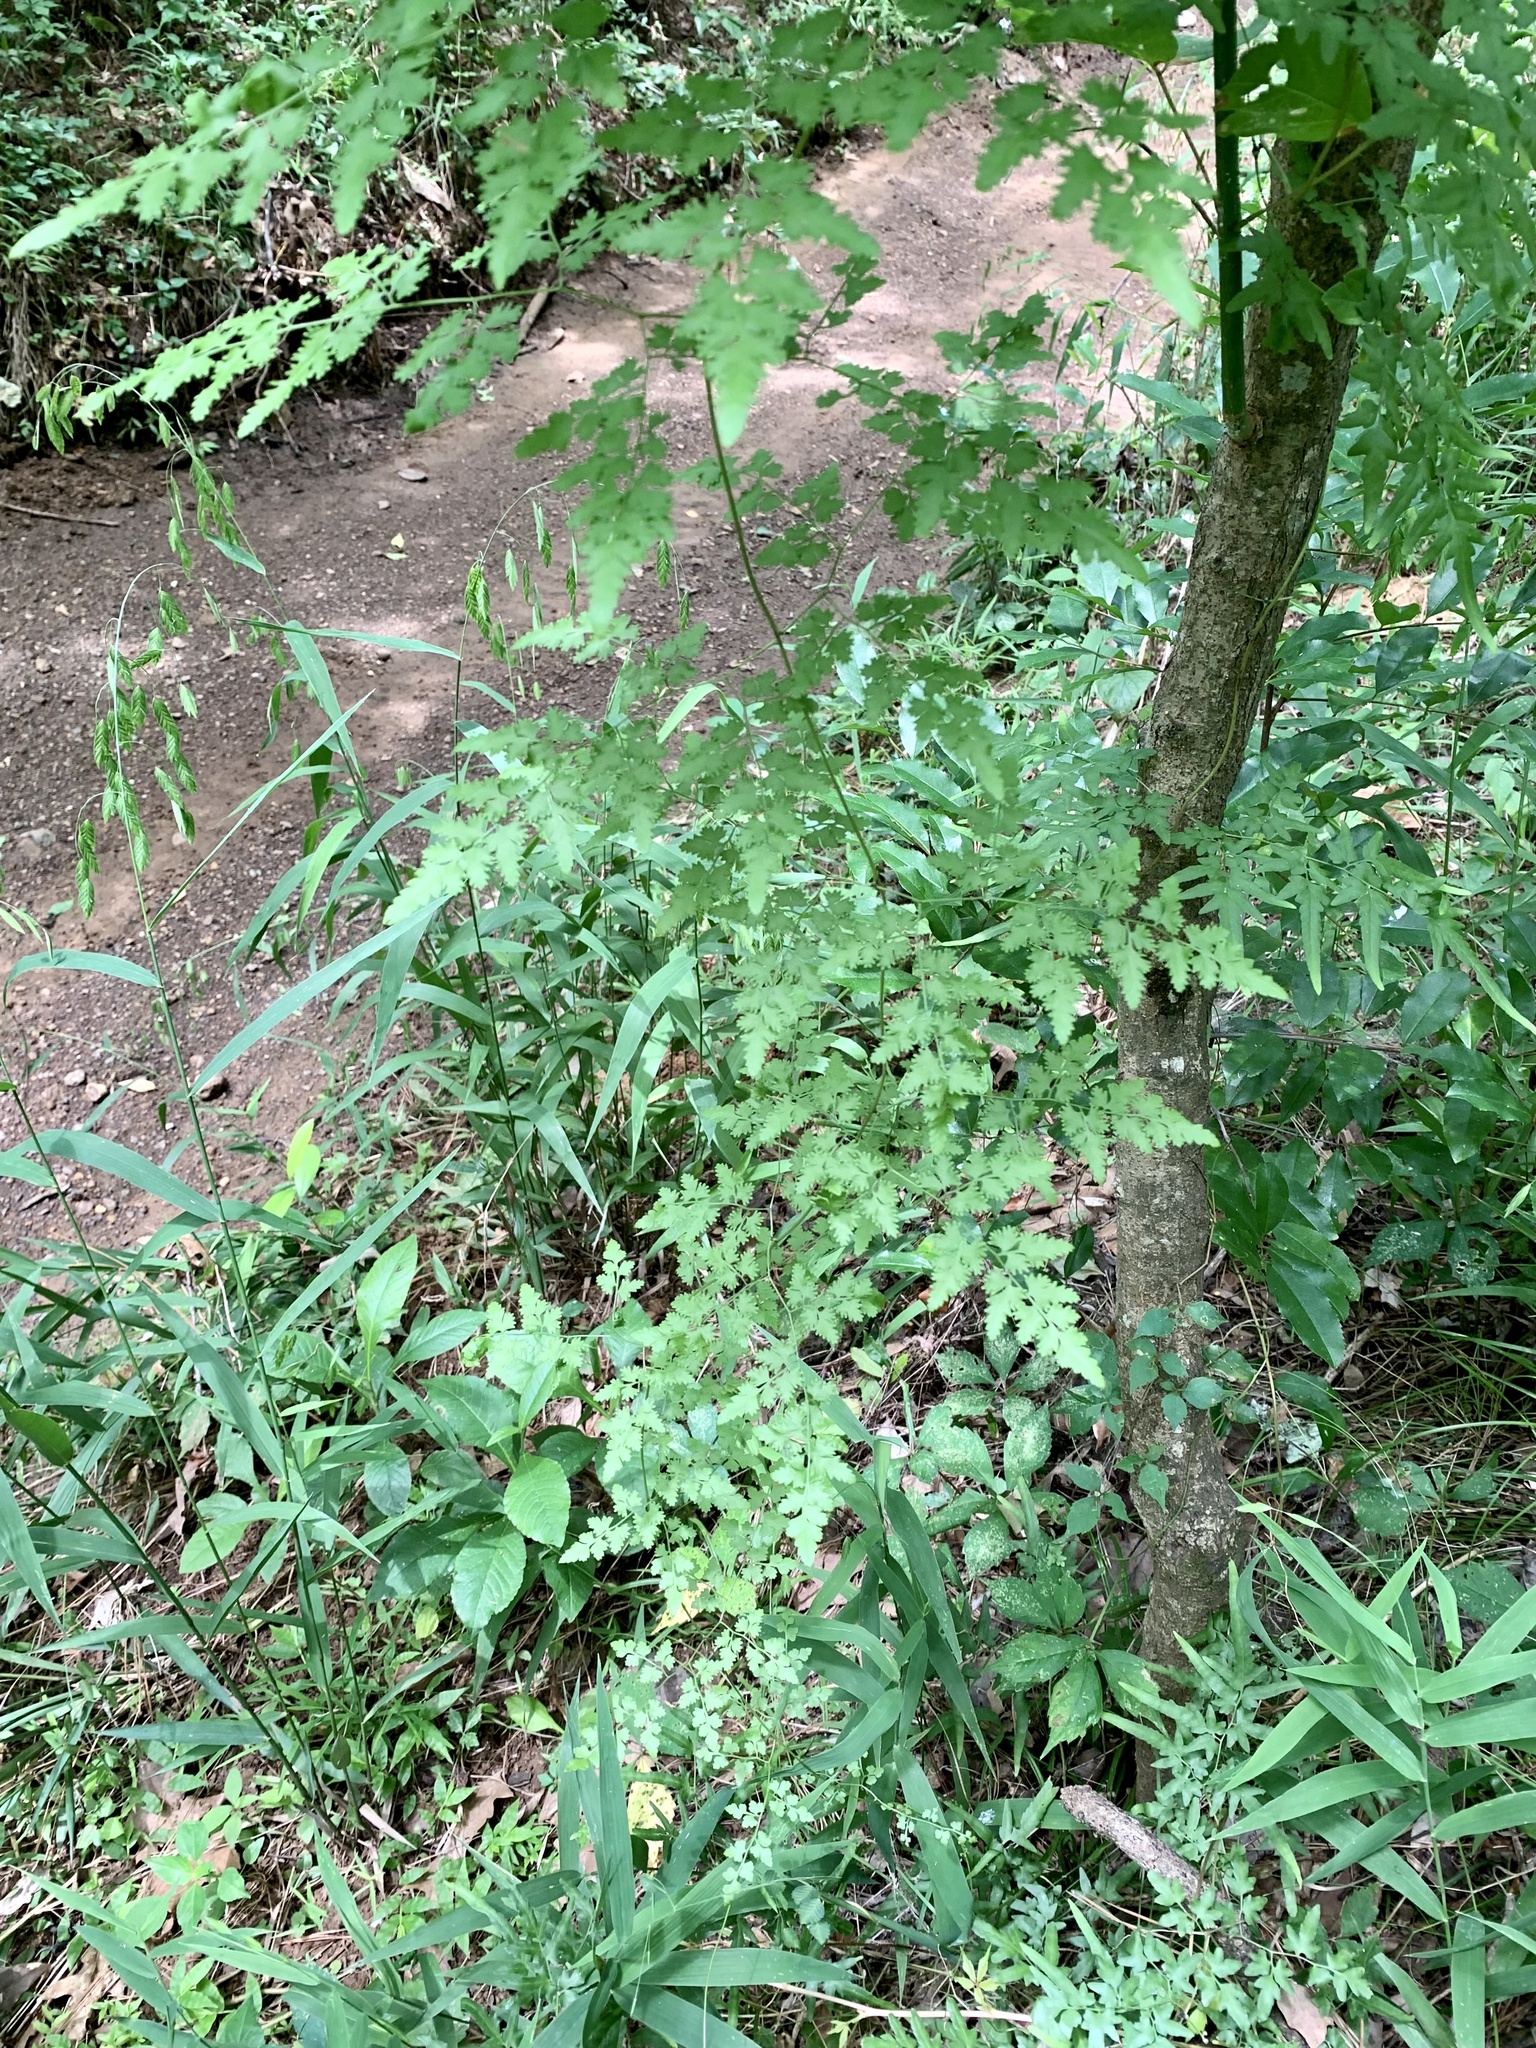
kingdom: Plantae
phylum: Tracheophyta
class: Polypodiopsida
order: Schizaeales
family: Lygodiaceae
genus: Lygodium
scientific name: Lygodium japonicum
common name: Japanese climbing fern
